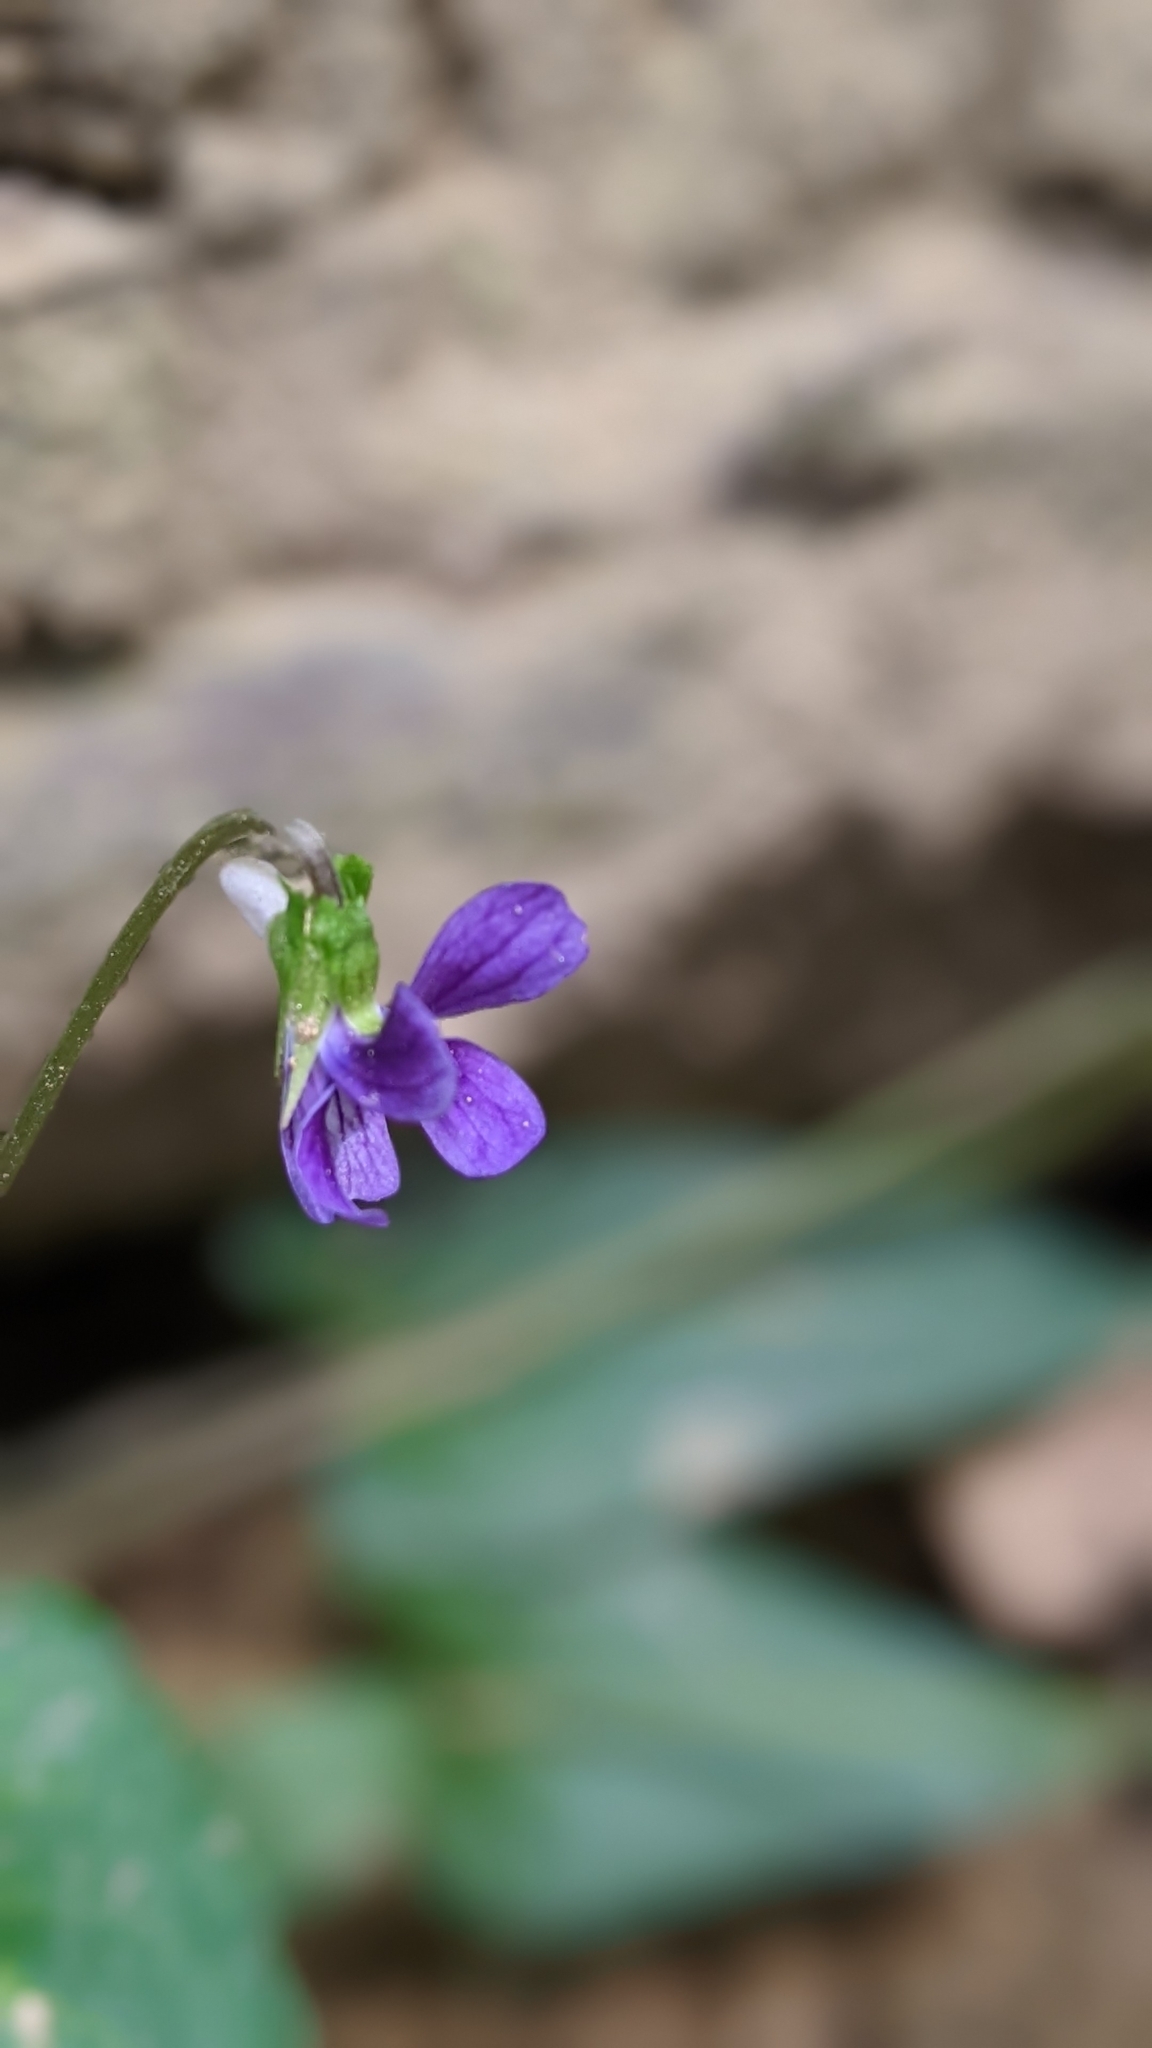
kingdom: Plantae
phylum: Tracheophyta
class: Magnoliopsida
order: Malpighiales
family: Violaceae
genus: Viola
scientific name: Viola
